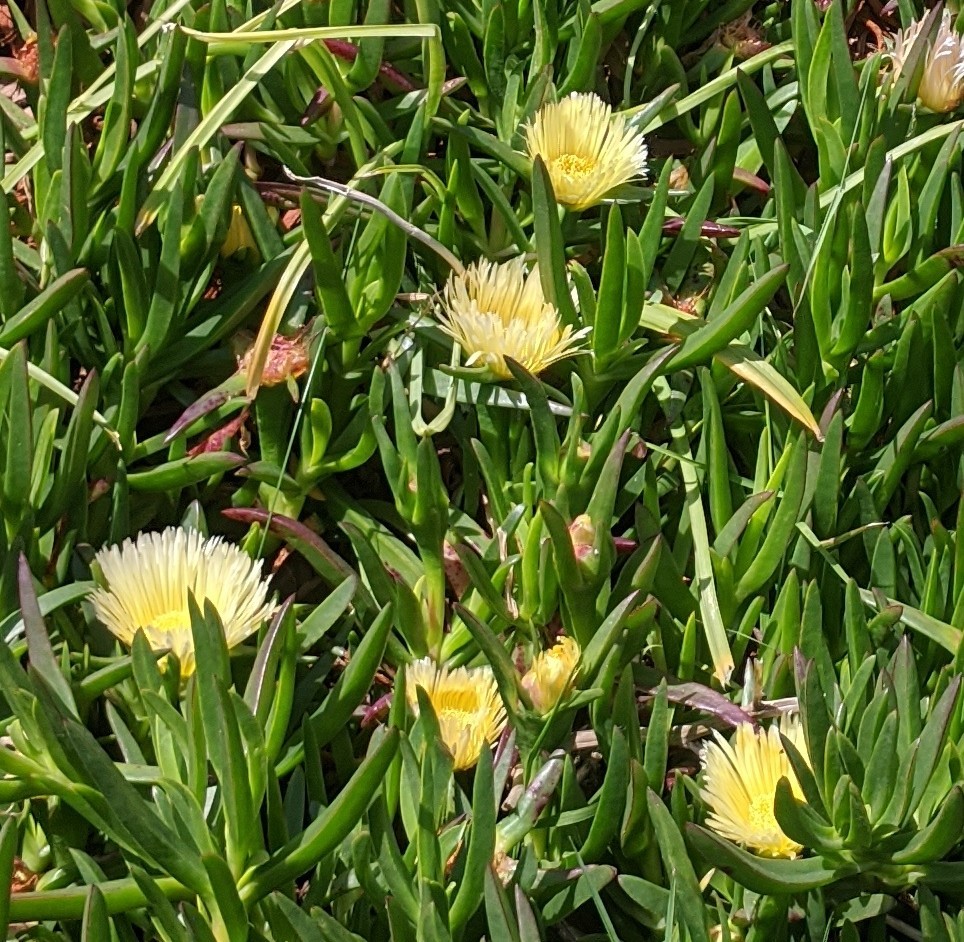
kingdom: Plantae
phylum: Tracheophyta
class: Magnoliopsida
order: Caryophyllales
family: Aizoaceae
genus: Carpobrotus
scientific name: Carpobrotus edulis
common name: Hottentot-fig
